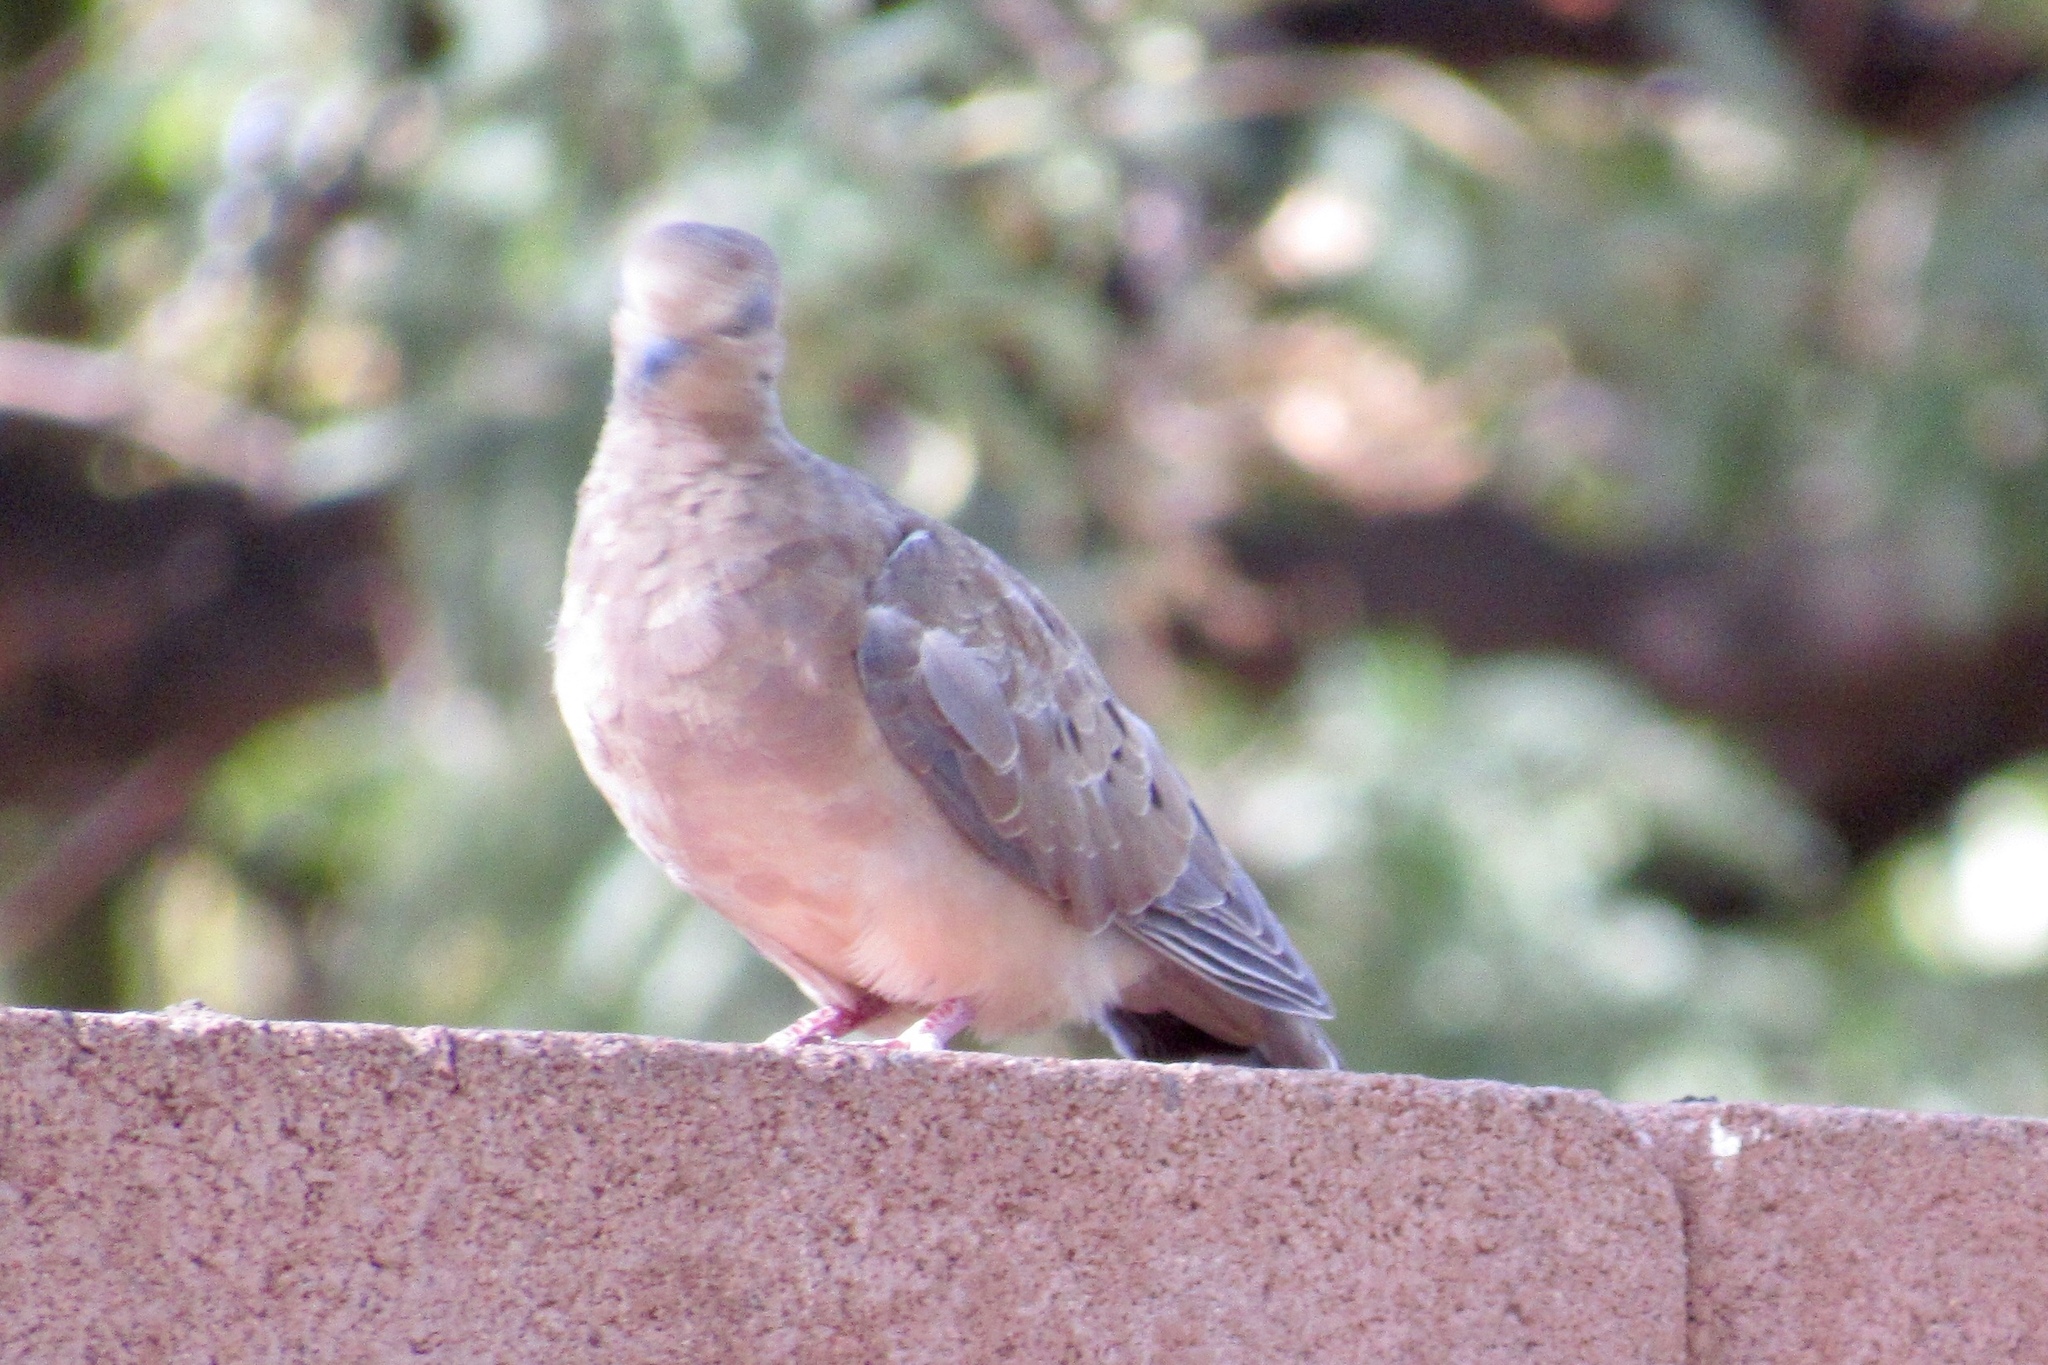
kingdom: Animalia
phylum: Chordata
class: Aves
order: Columbiformes
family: Columbidae
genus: Zenaida
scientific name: Zenaida macroura
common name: Mourning dove
